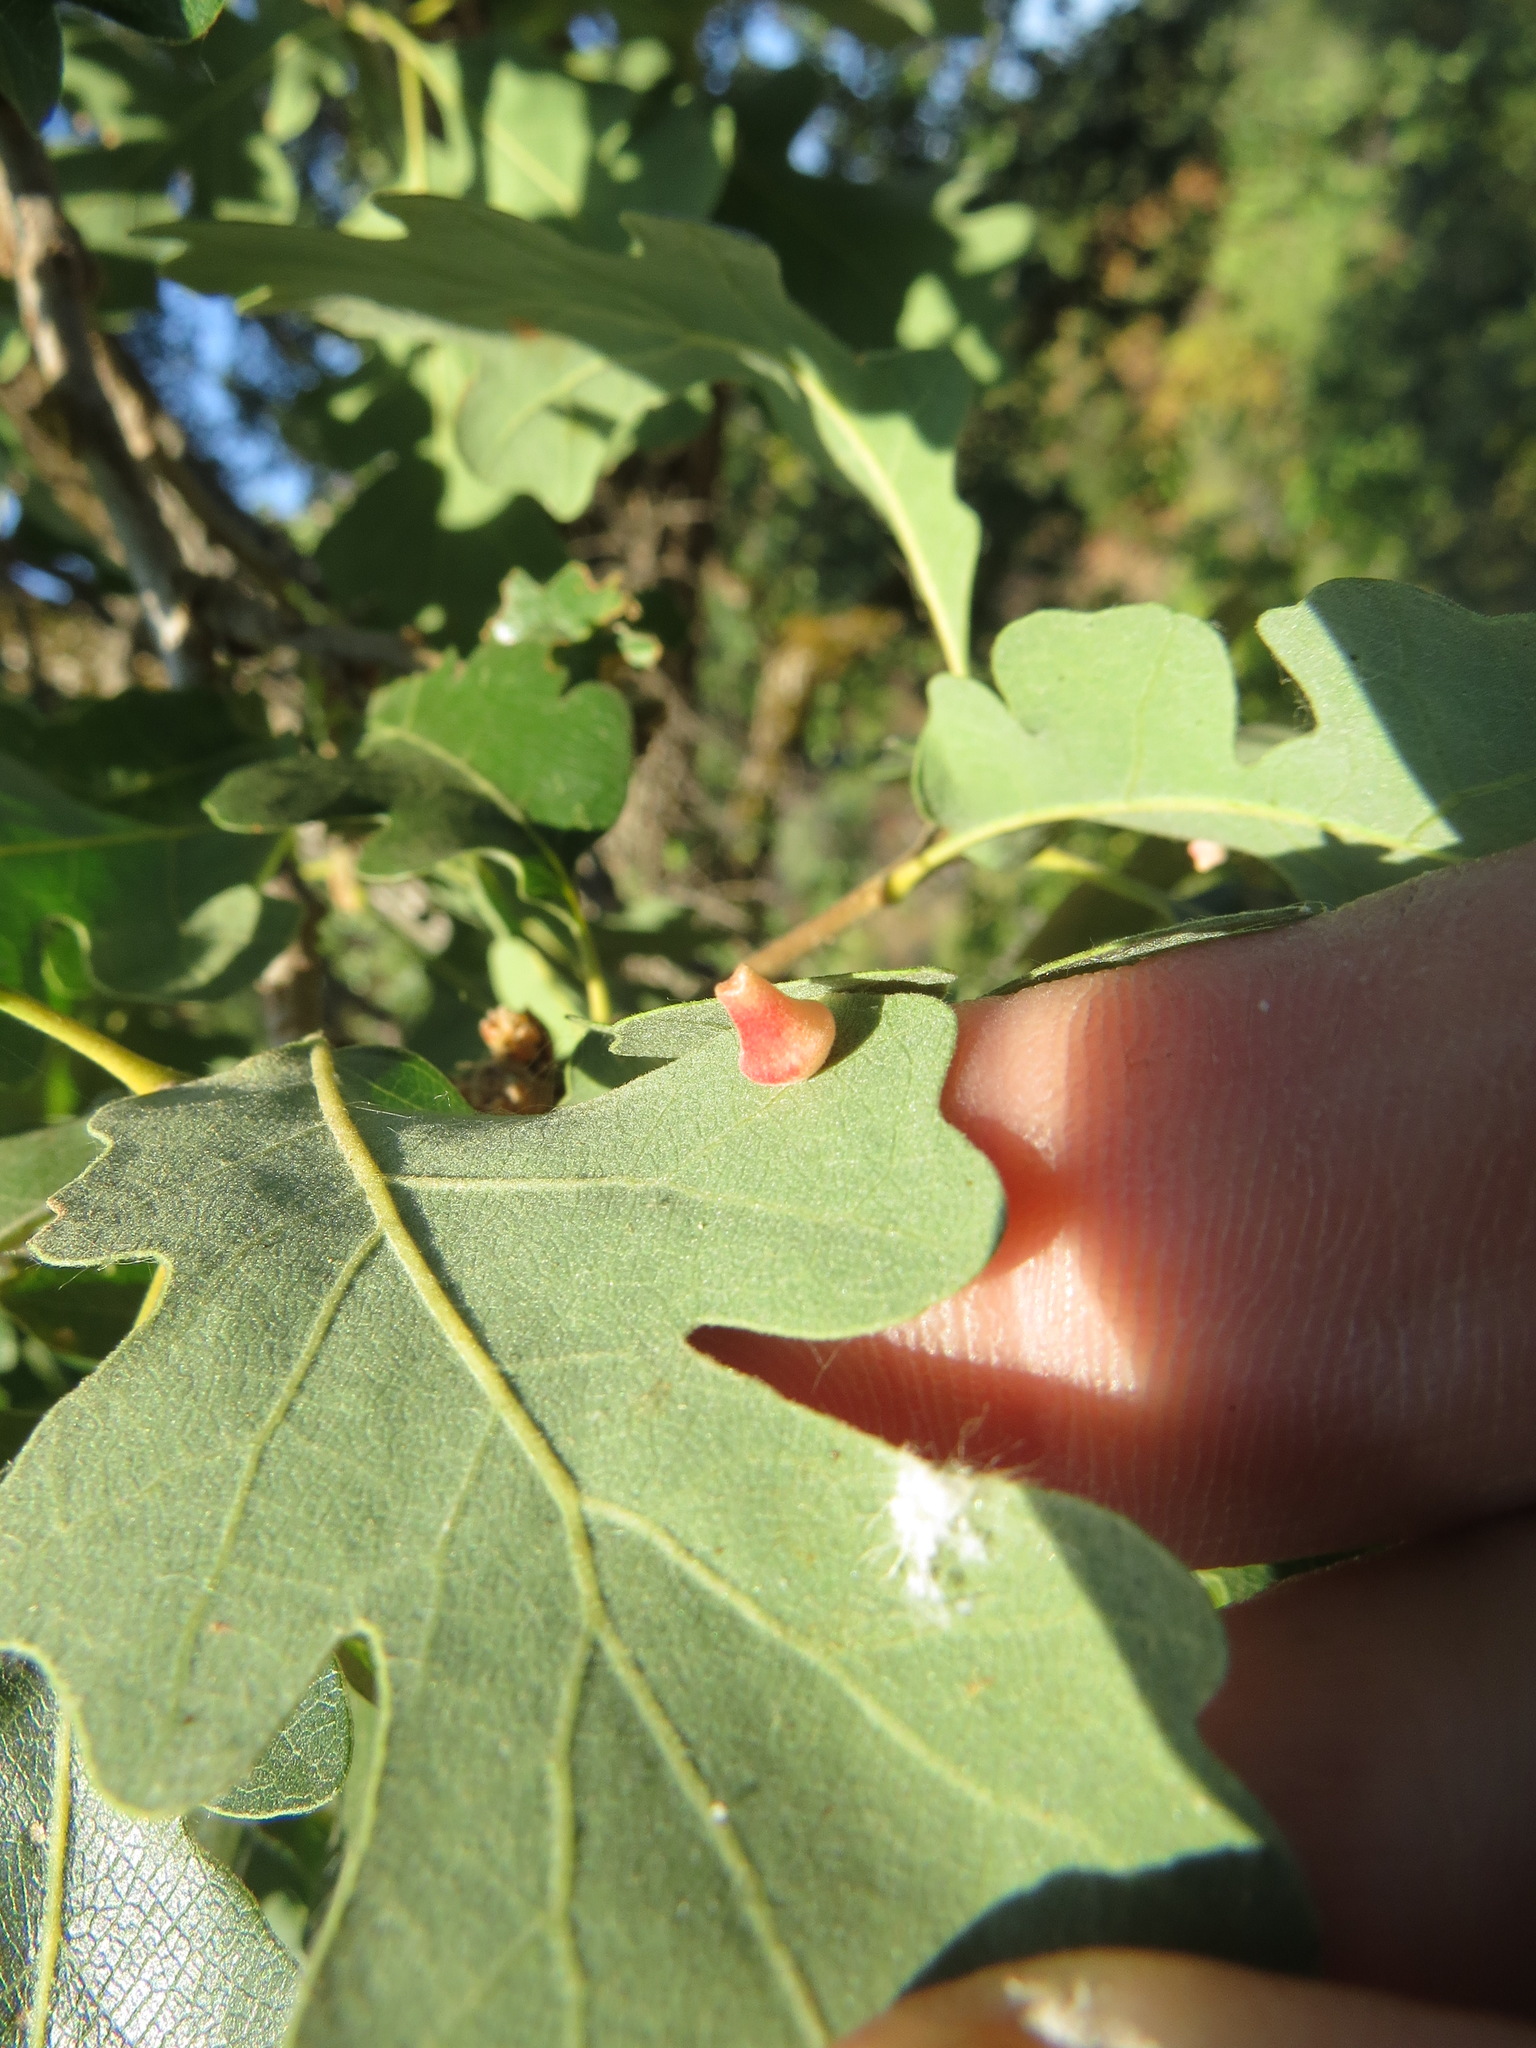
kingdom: Animalia
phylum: Arthropoda
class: Insecta
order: Hymenoptera
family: Cynipidae
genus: Andricus
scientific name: Andricus
